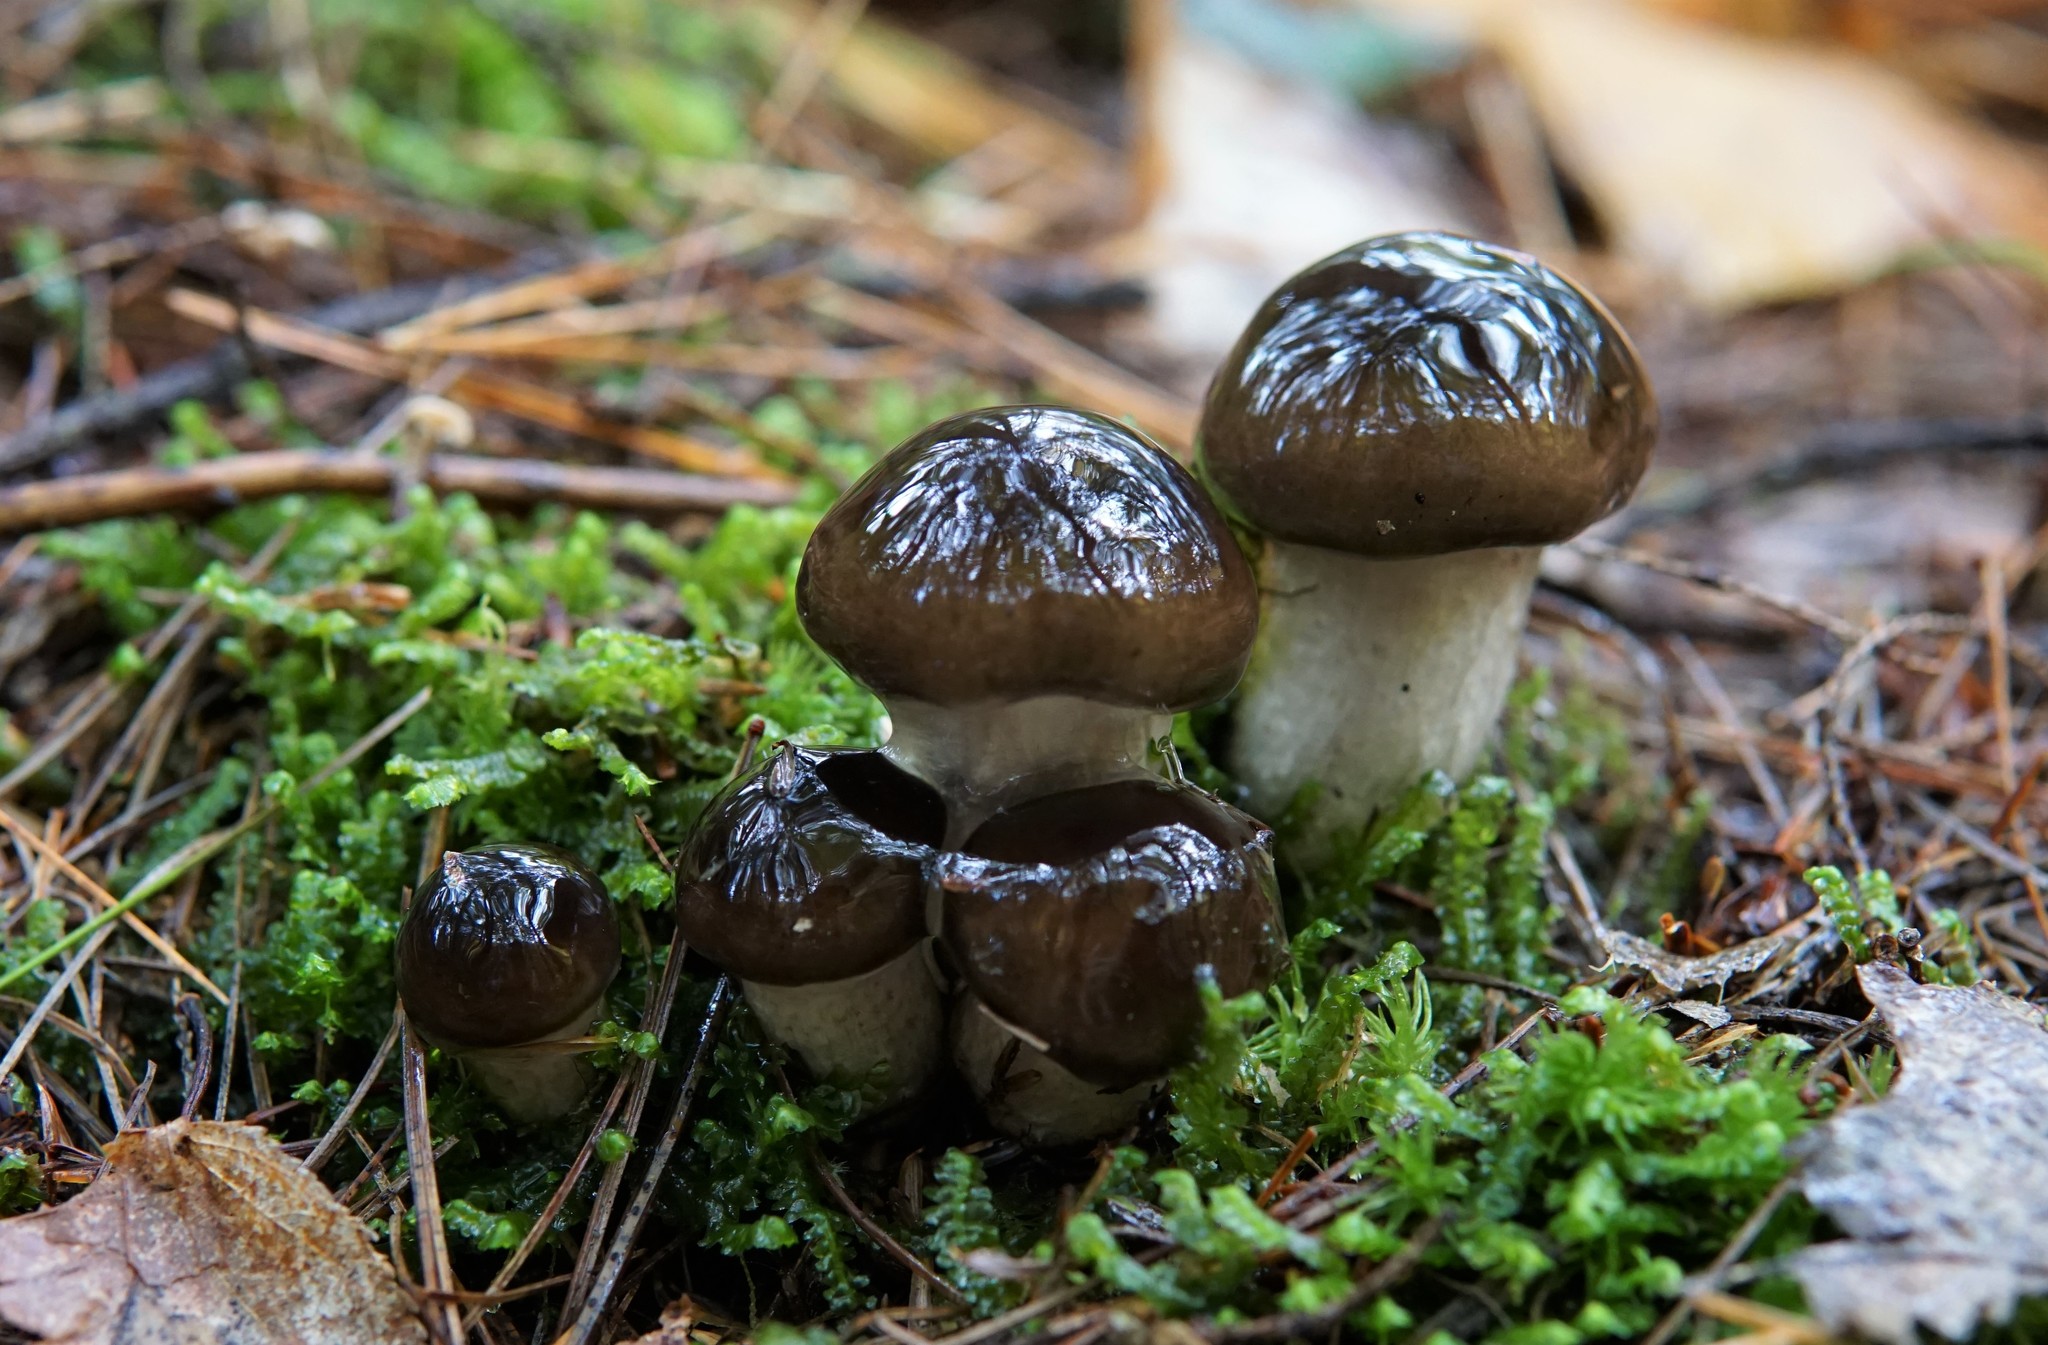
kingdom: Fungi
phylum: Basidiomycota
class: Agaricomycetes
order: Agaricales
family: Hygrophoraceae
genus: Hygrophorus
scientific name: Hygrophorus fuligineus
